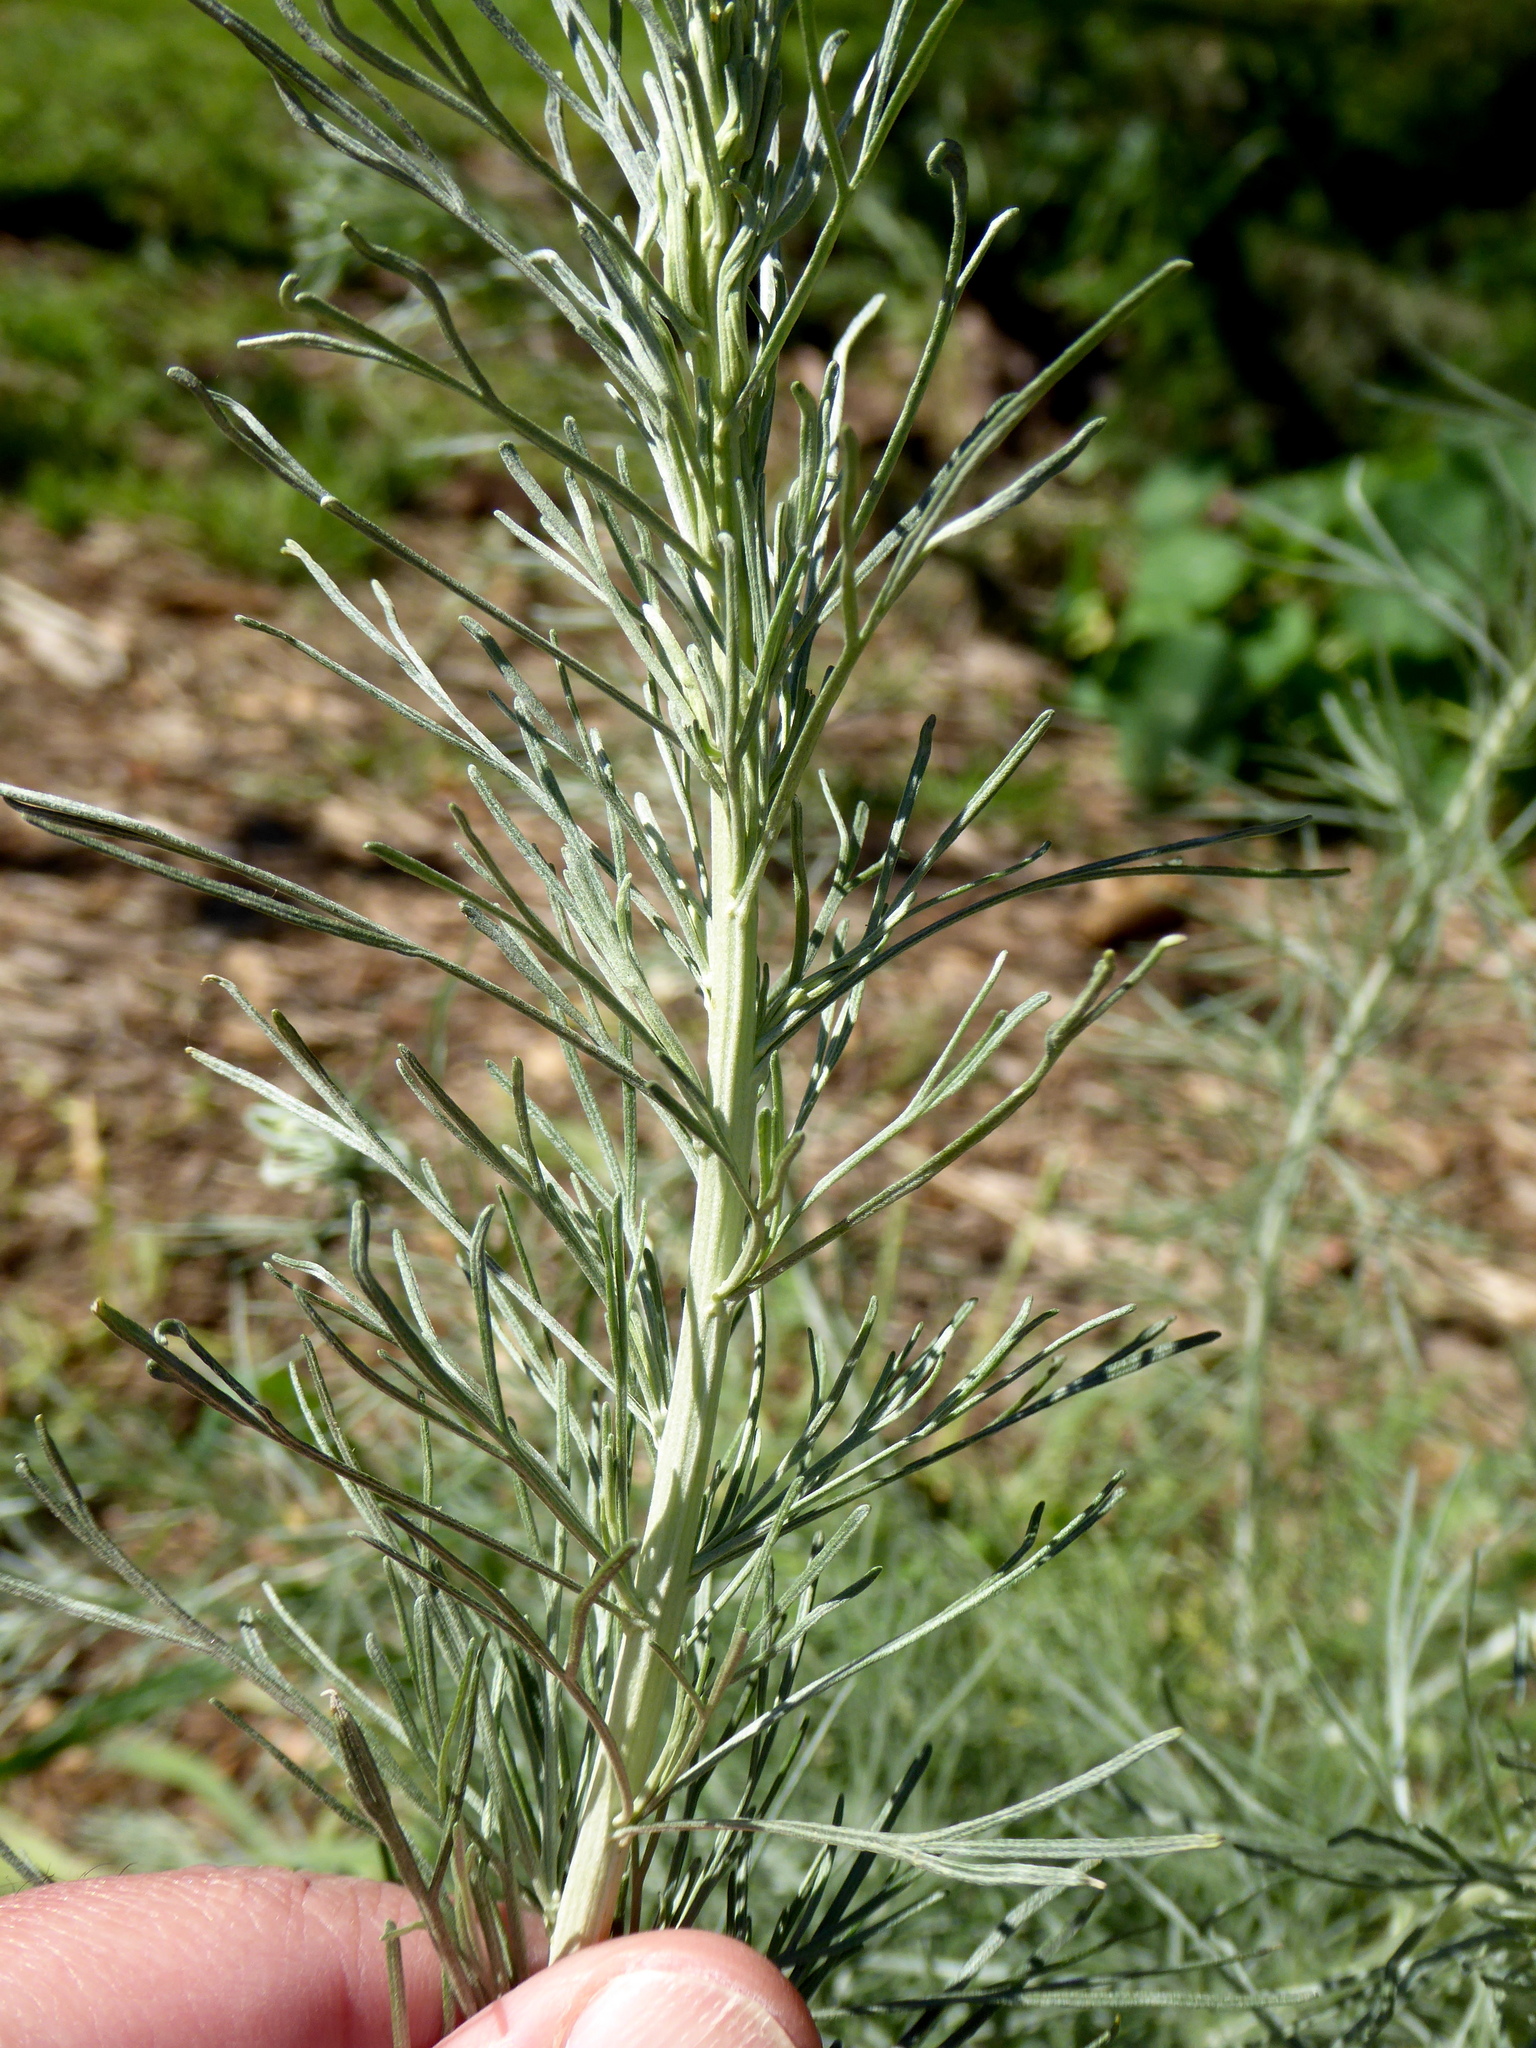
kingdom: Plantae
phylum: Tracheophyta
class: Magnoliopsida
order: Asterales
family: Asteraceae
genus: Artemisia
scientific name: Artemisia californica
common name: California sagebrush
